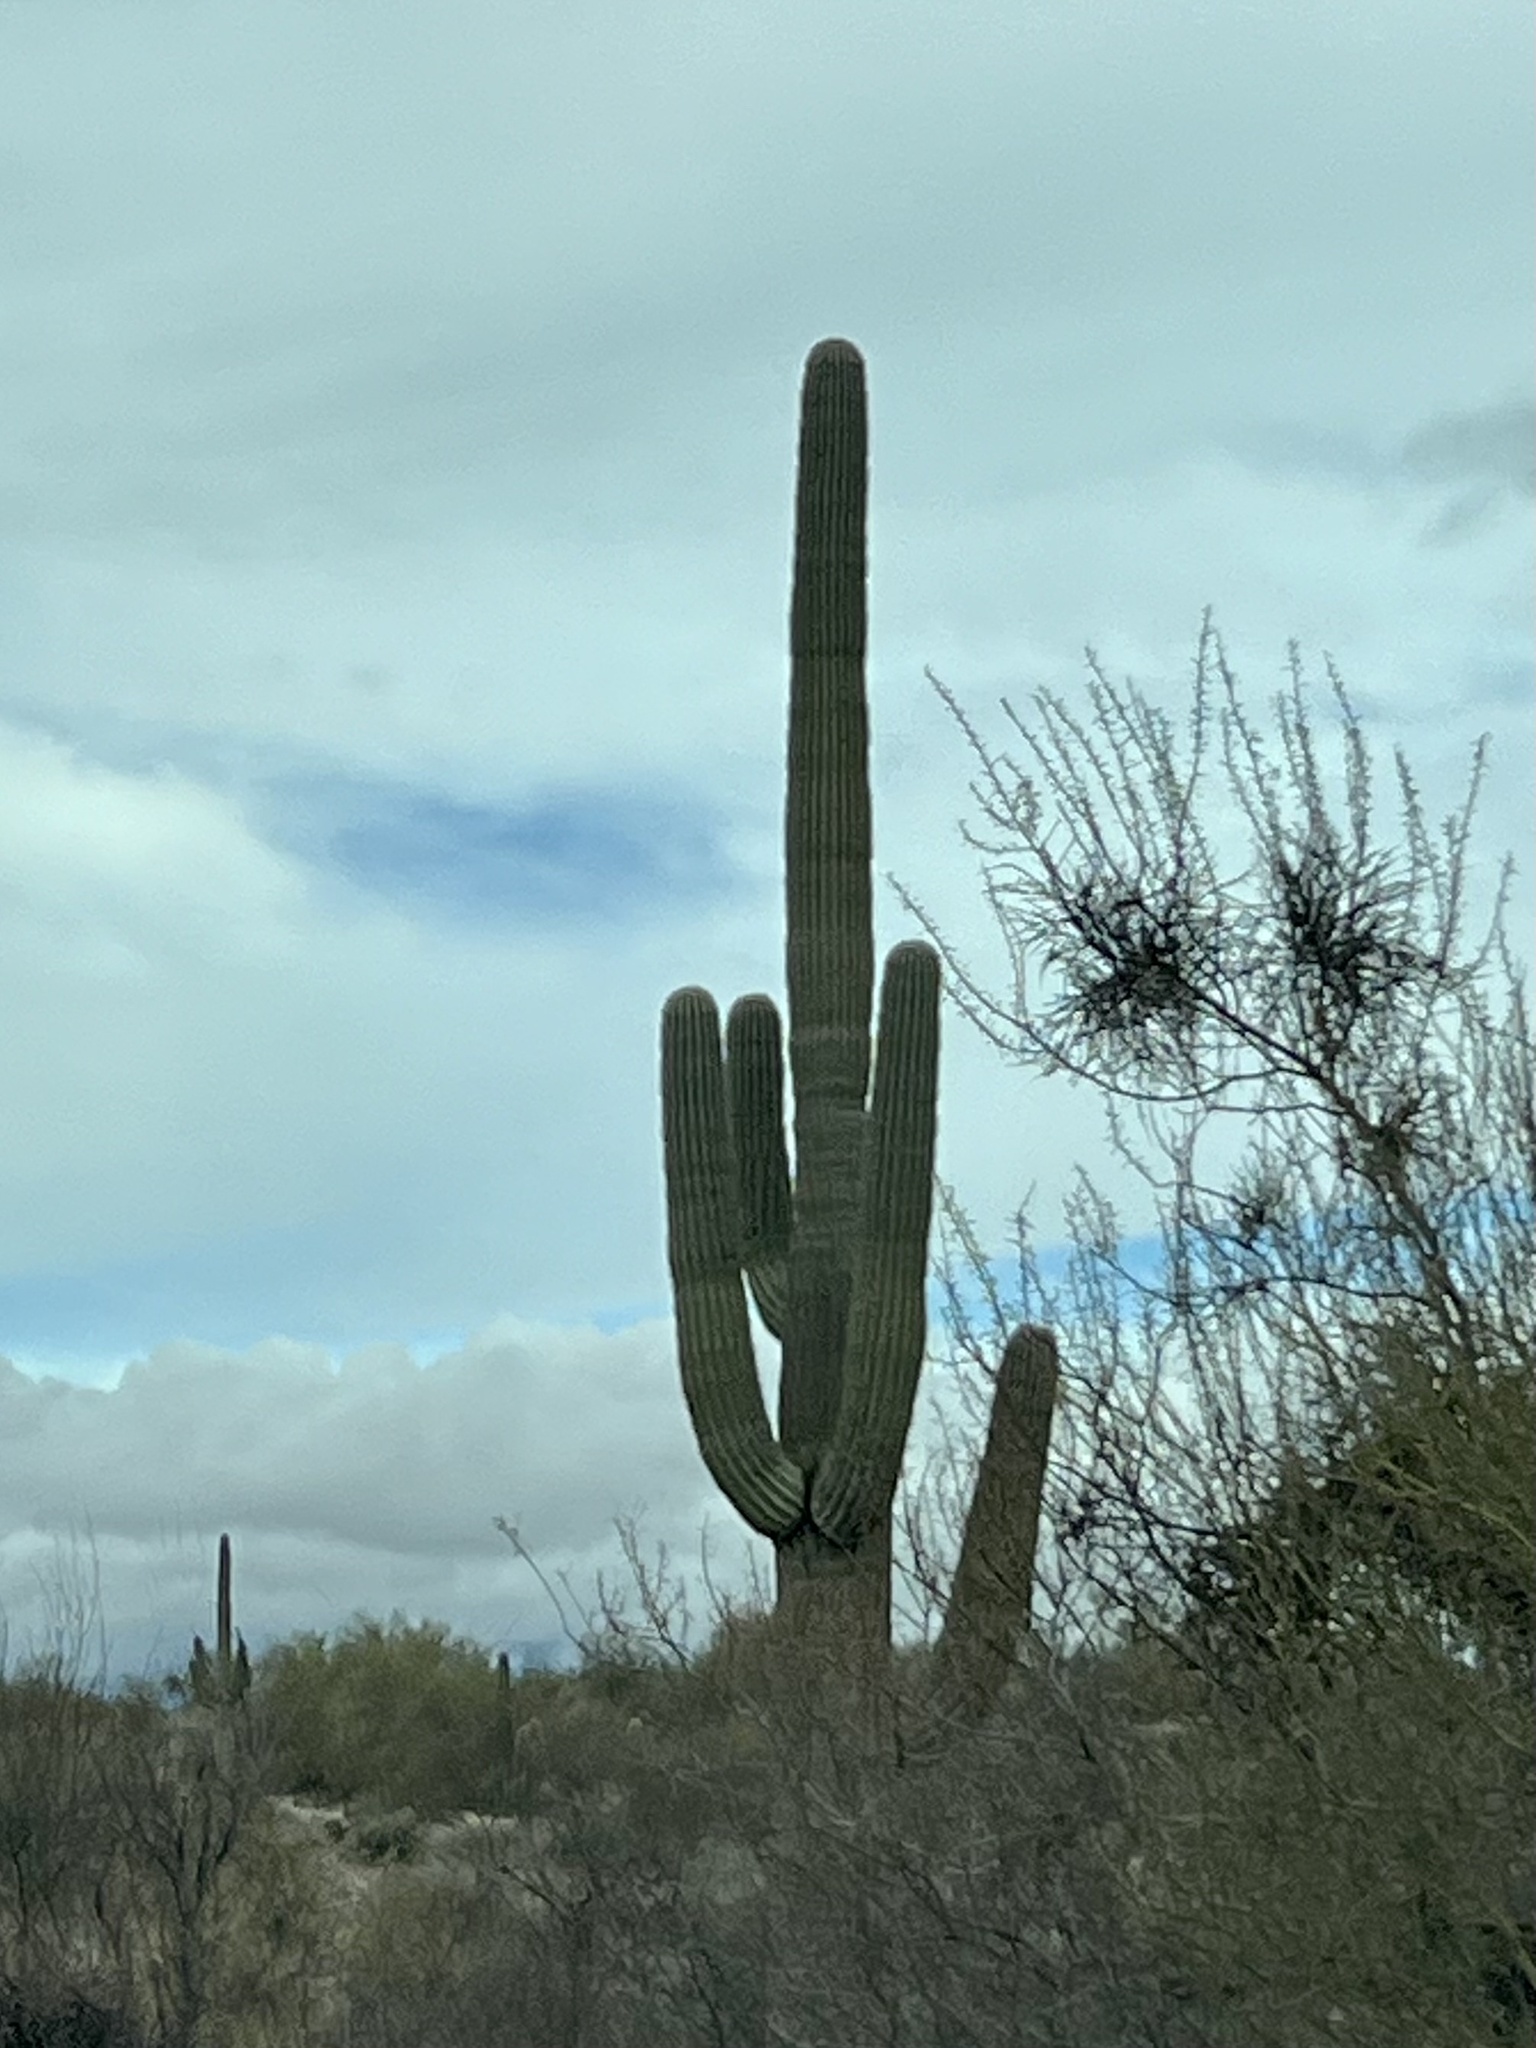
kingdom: Plantae
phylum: Tracheophyta
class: Magnoliopsida
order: Caryophyllales
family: Cactaceae
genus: Carnegiea
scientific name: Carnegiea gigantea
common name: Saguaro
